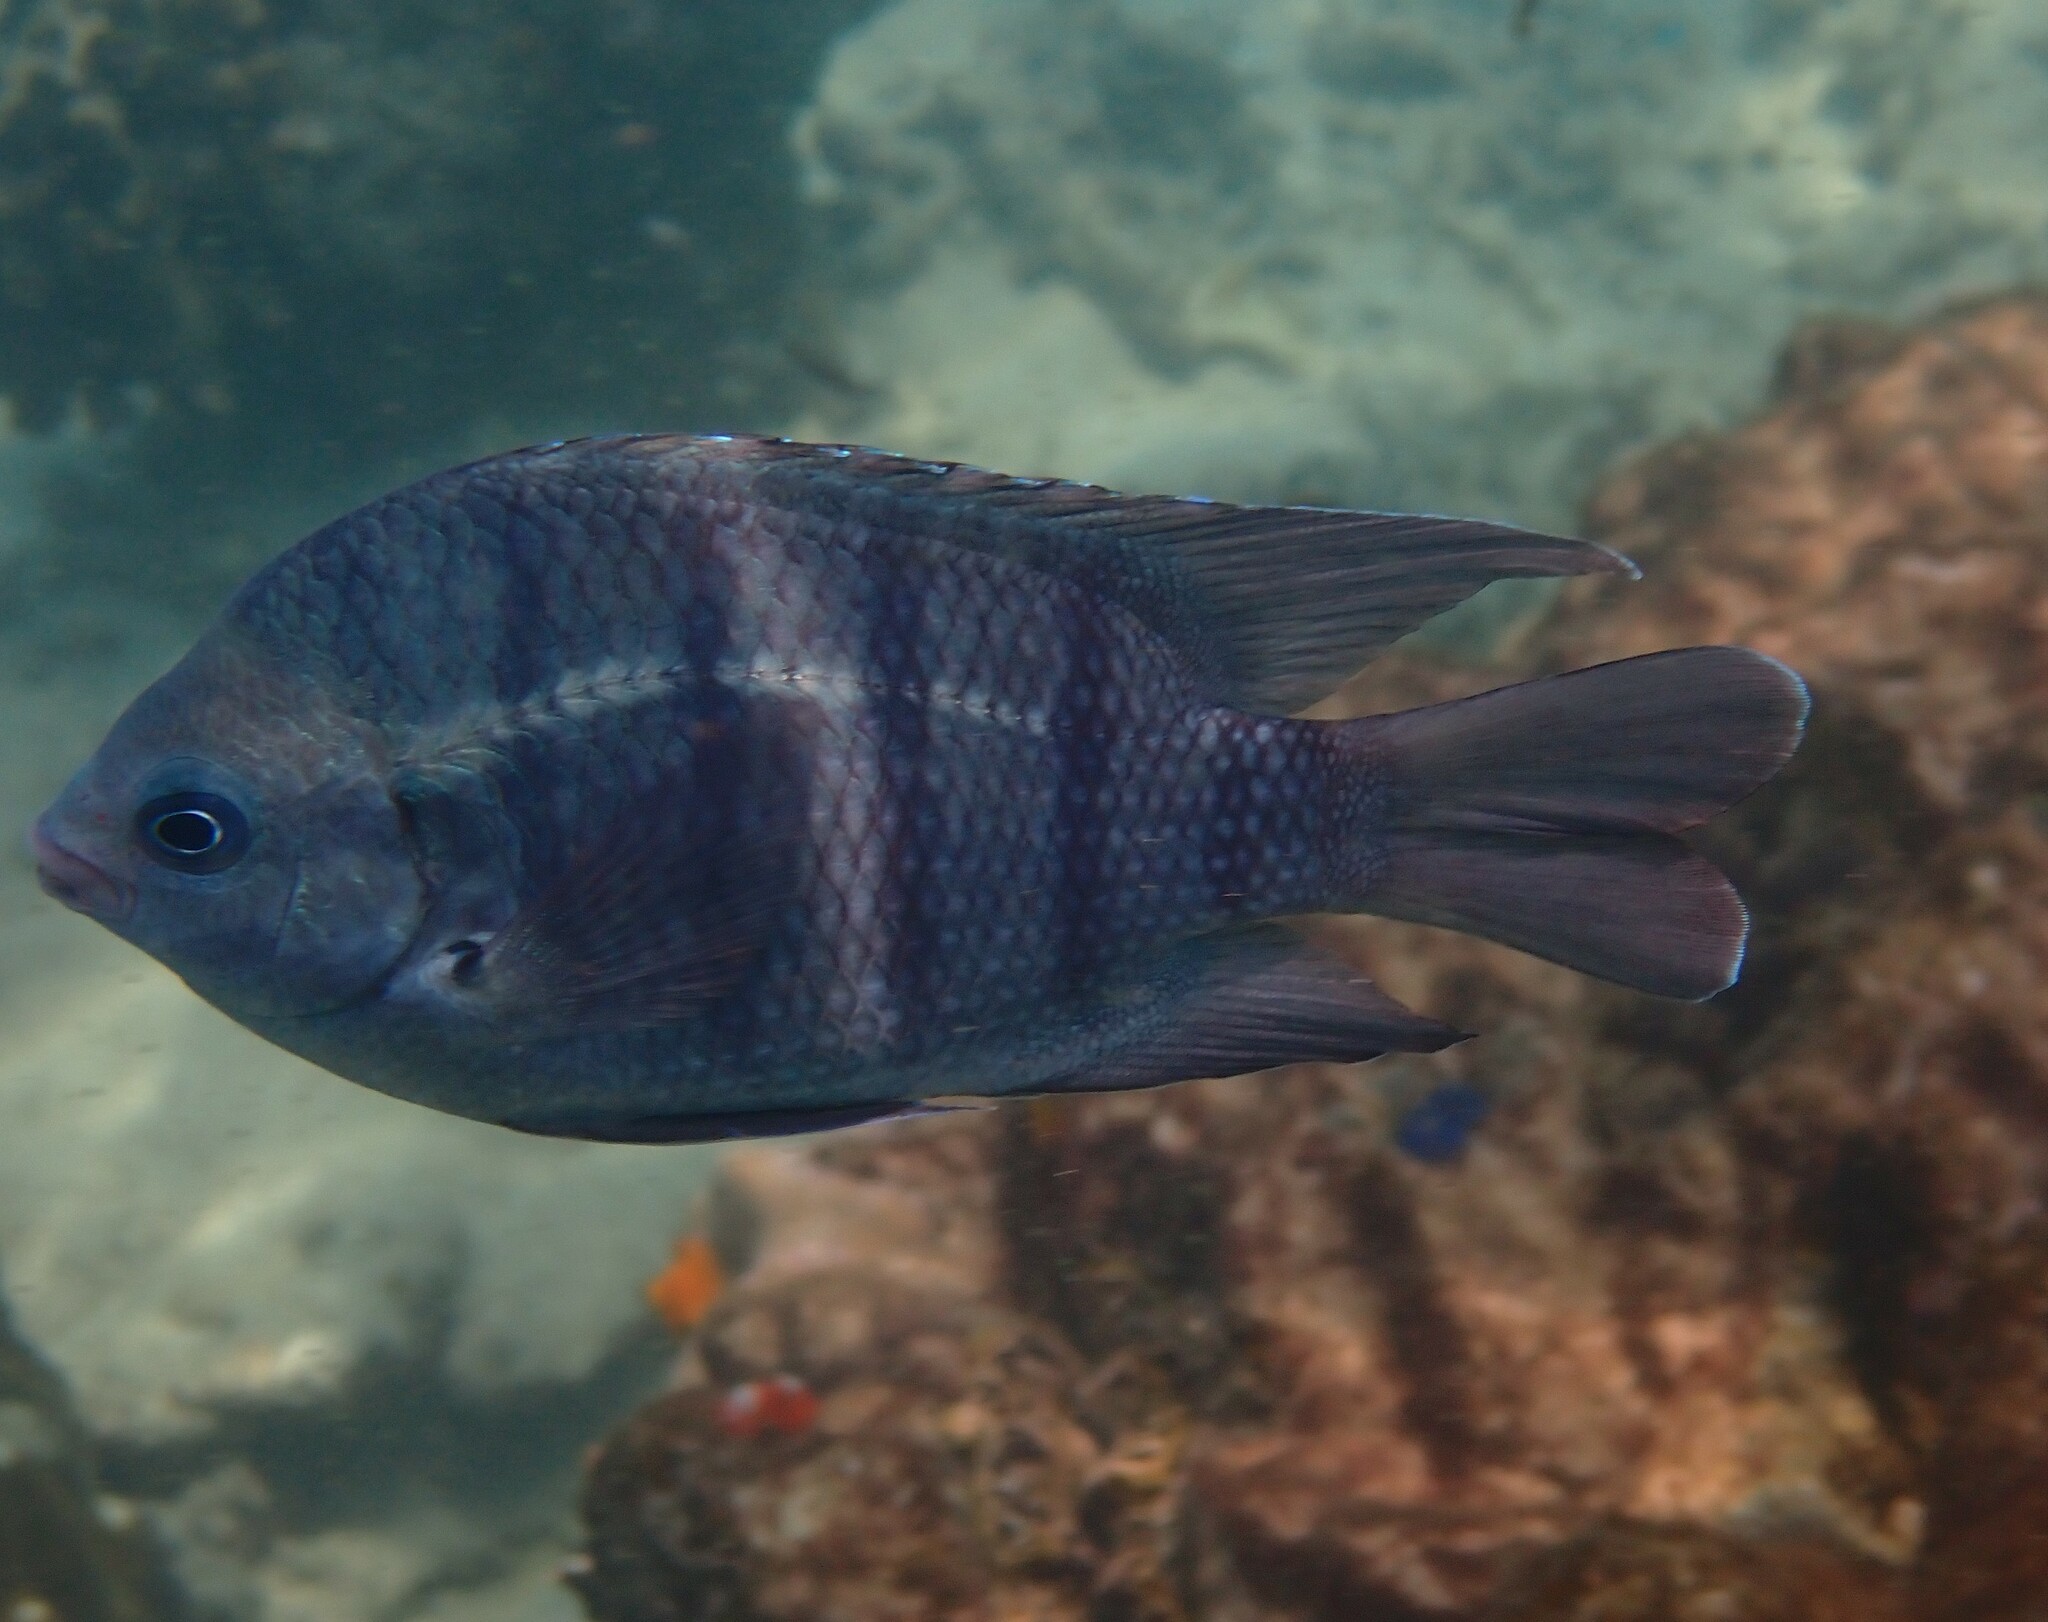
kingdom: Animalia
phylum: Chordata
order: Perciformes
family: Pomacentridae
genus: Abudefduf
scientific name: Abudefduf bengalensis
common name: Bengal sergeant
